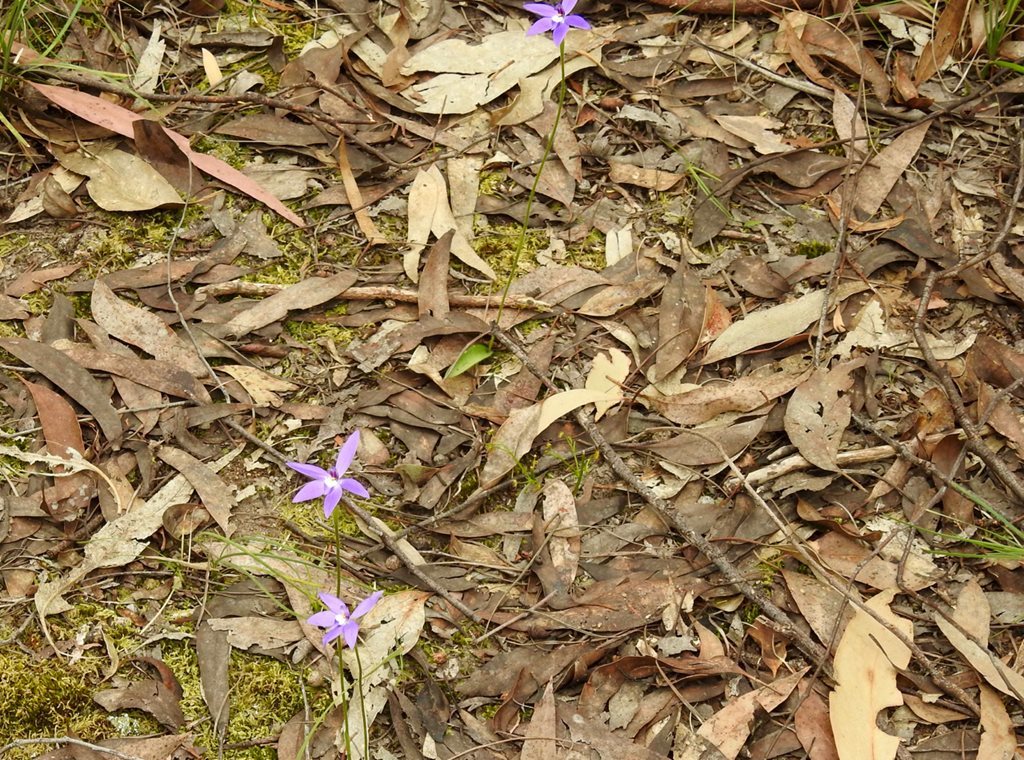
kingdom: Plantae
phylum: Tracheophyta
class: Liliopsida
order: Asparagales
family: Orchidaceae
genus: Caladenia
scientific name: Caladenia major
